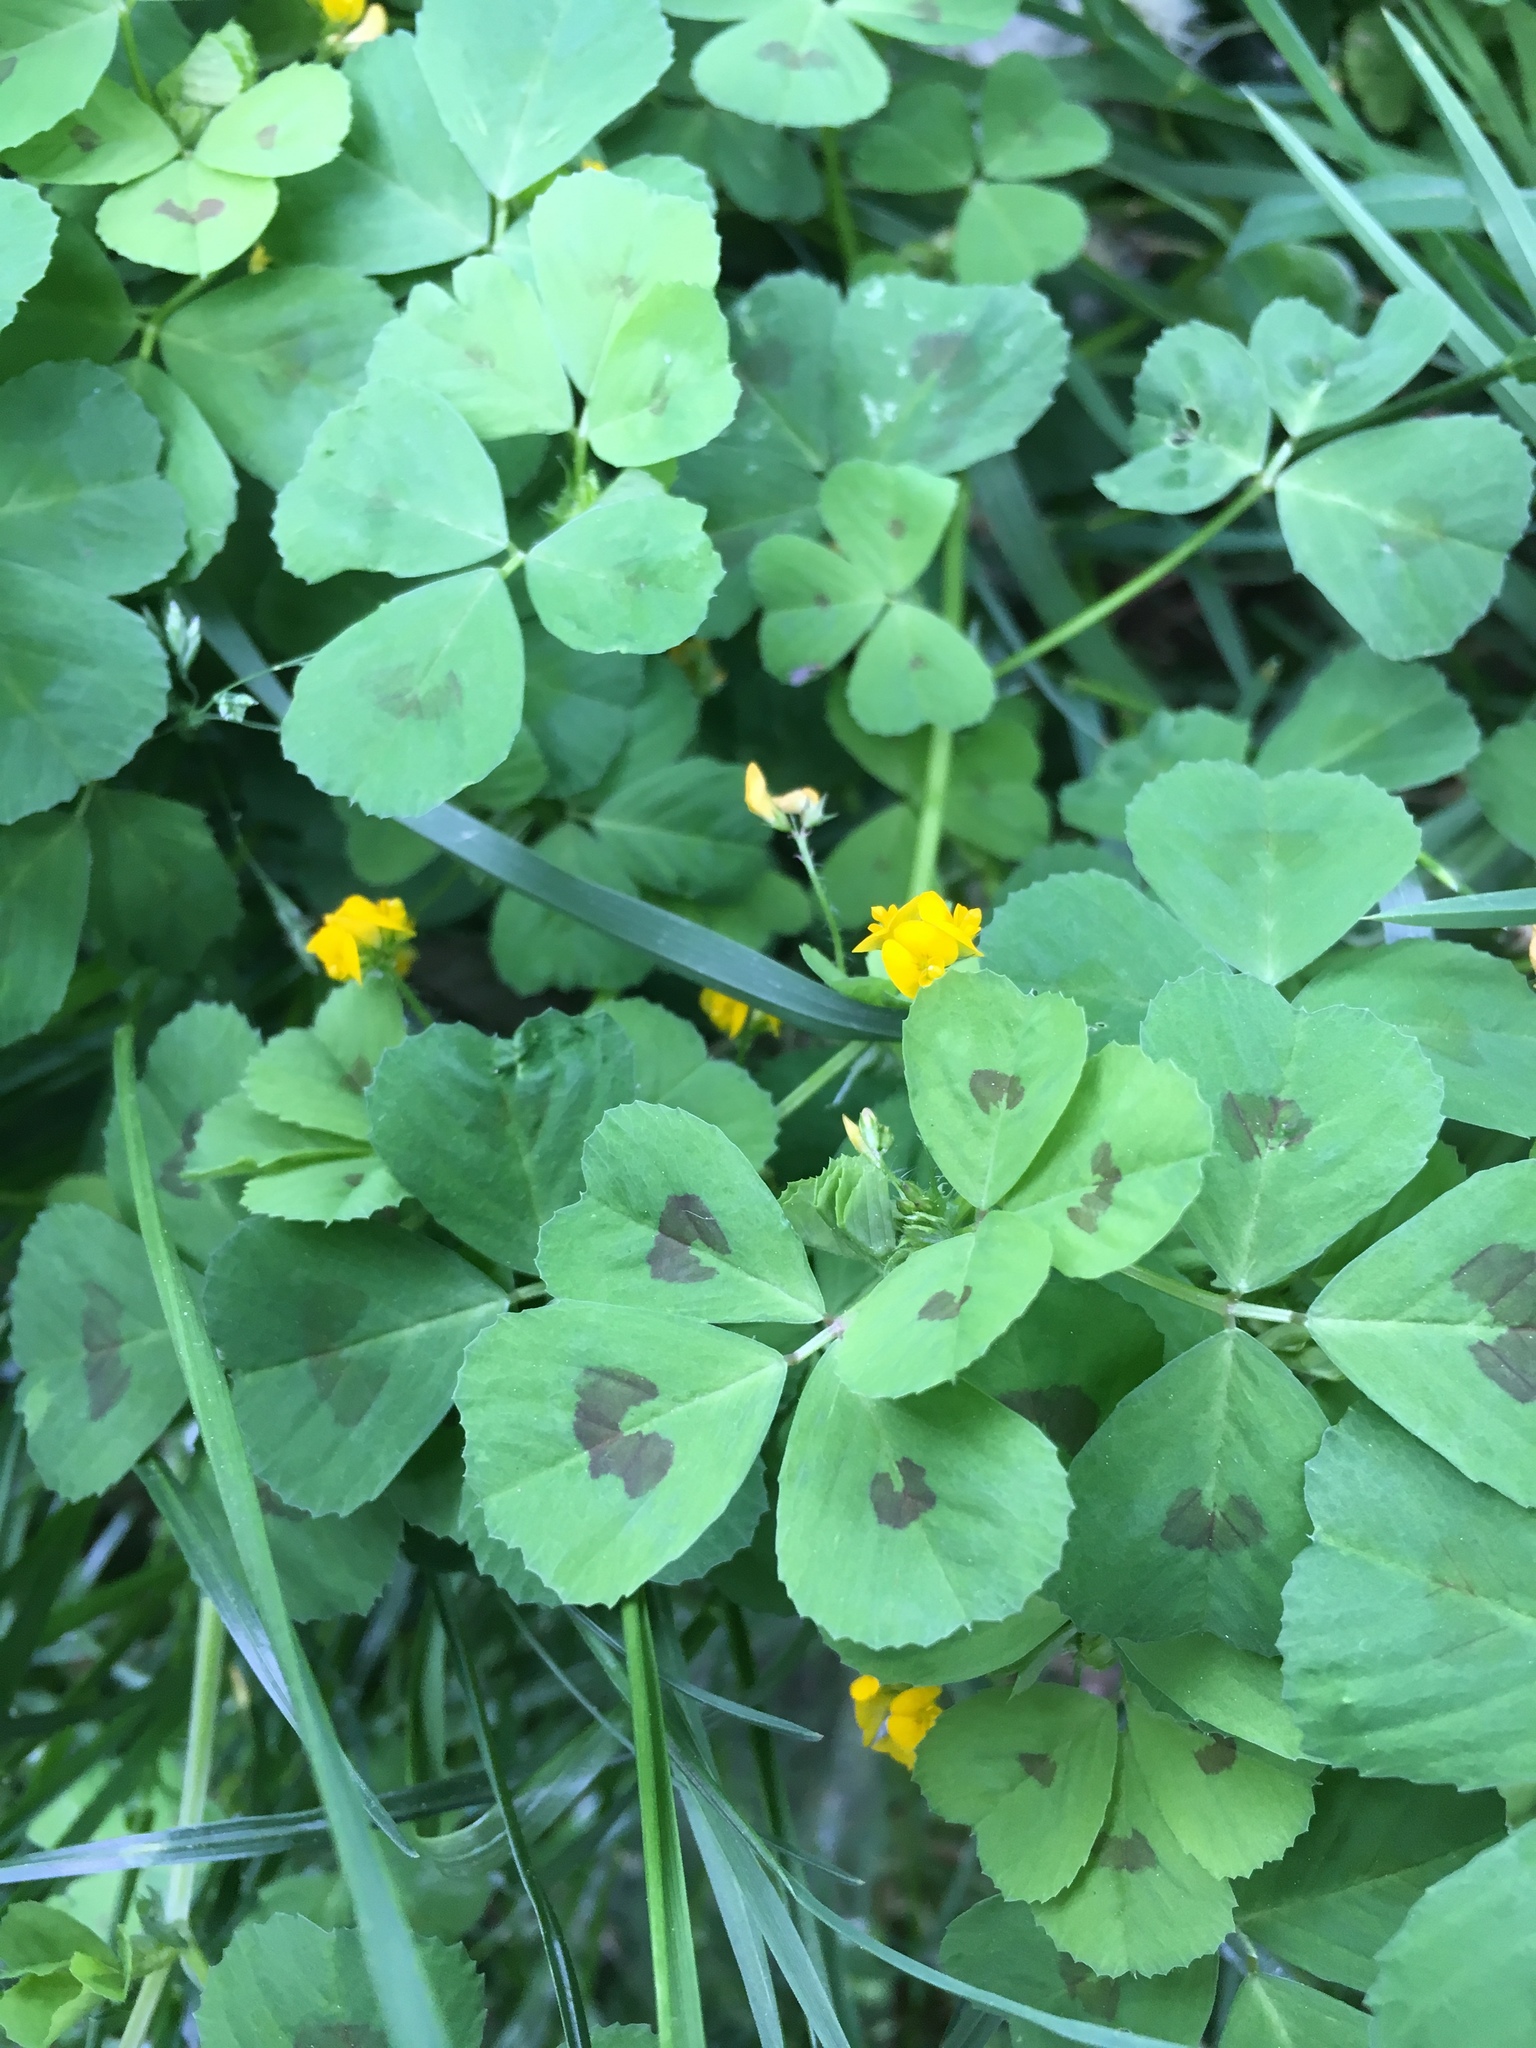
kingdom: Plantae
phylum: Tracheophyta
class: Magnoliopsida
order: Fabales
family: Fabaceae
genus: Medicago
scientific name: Medicago arabica
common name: Spotted medick
